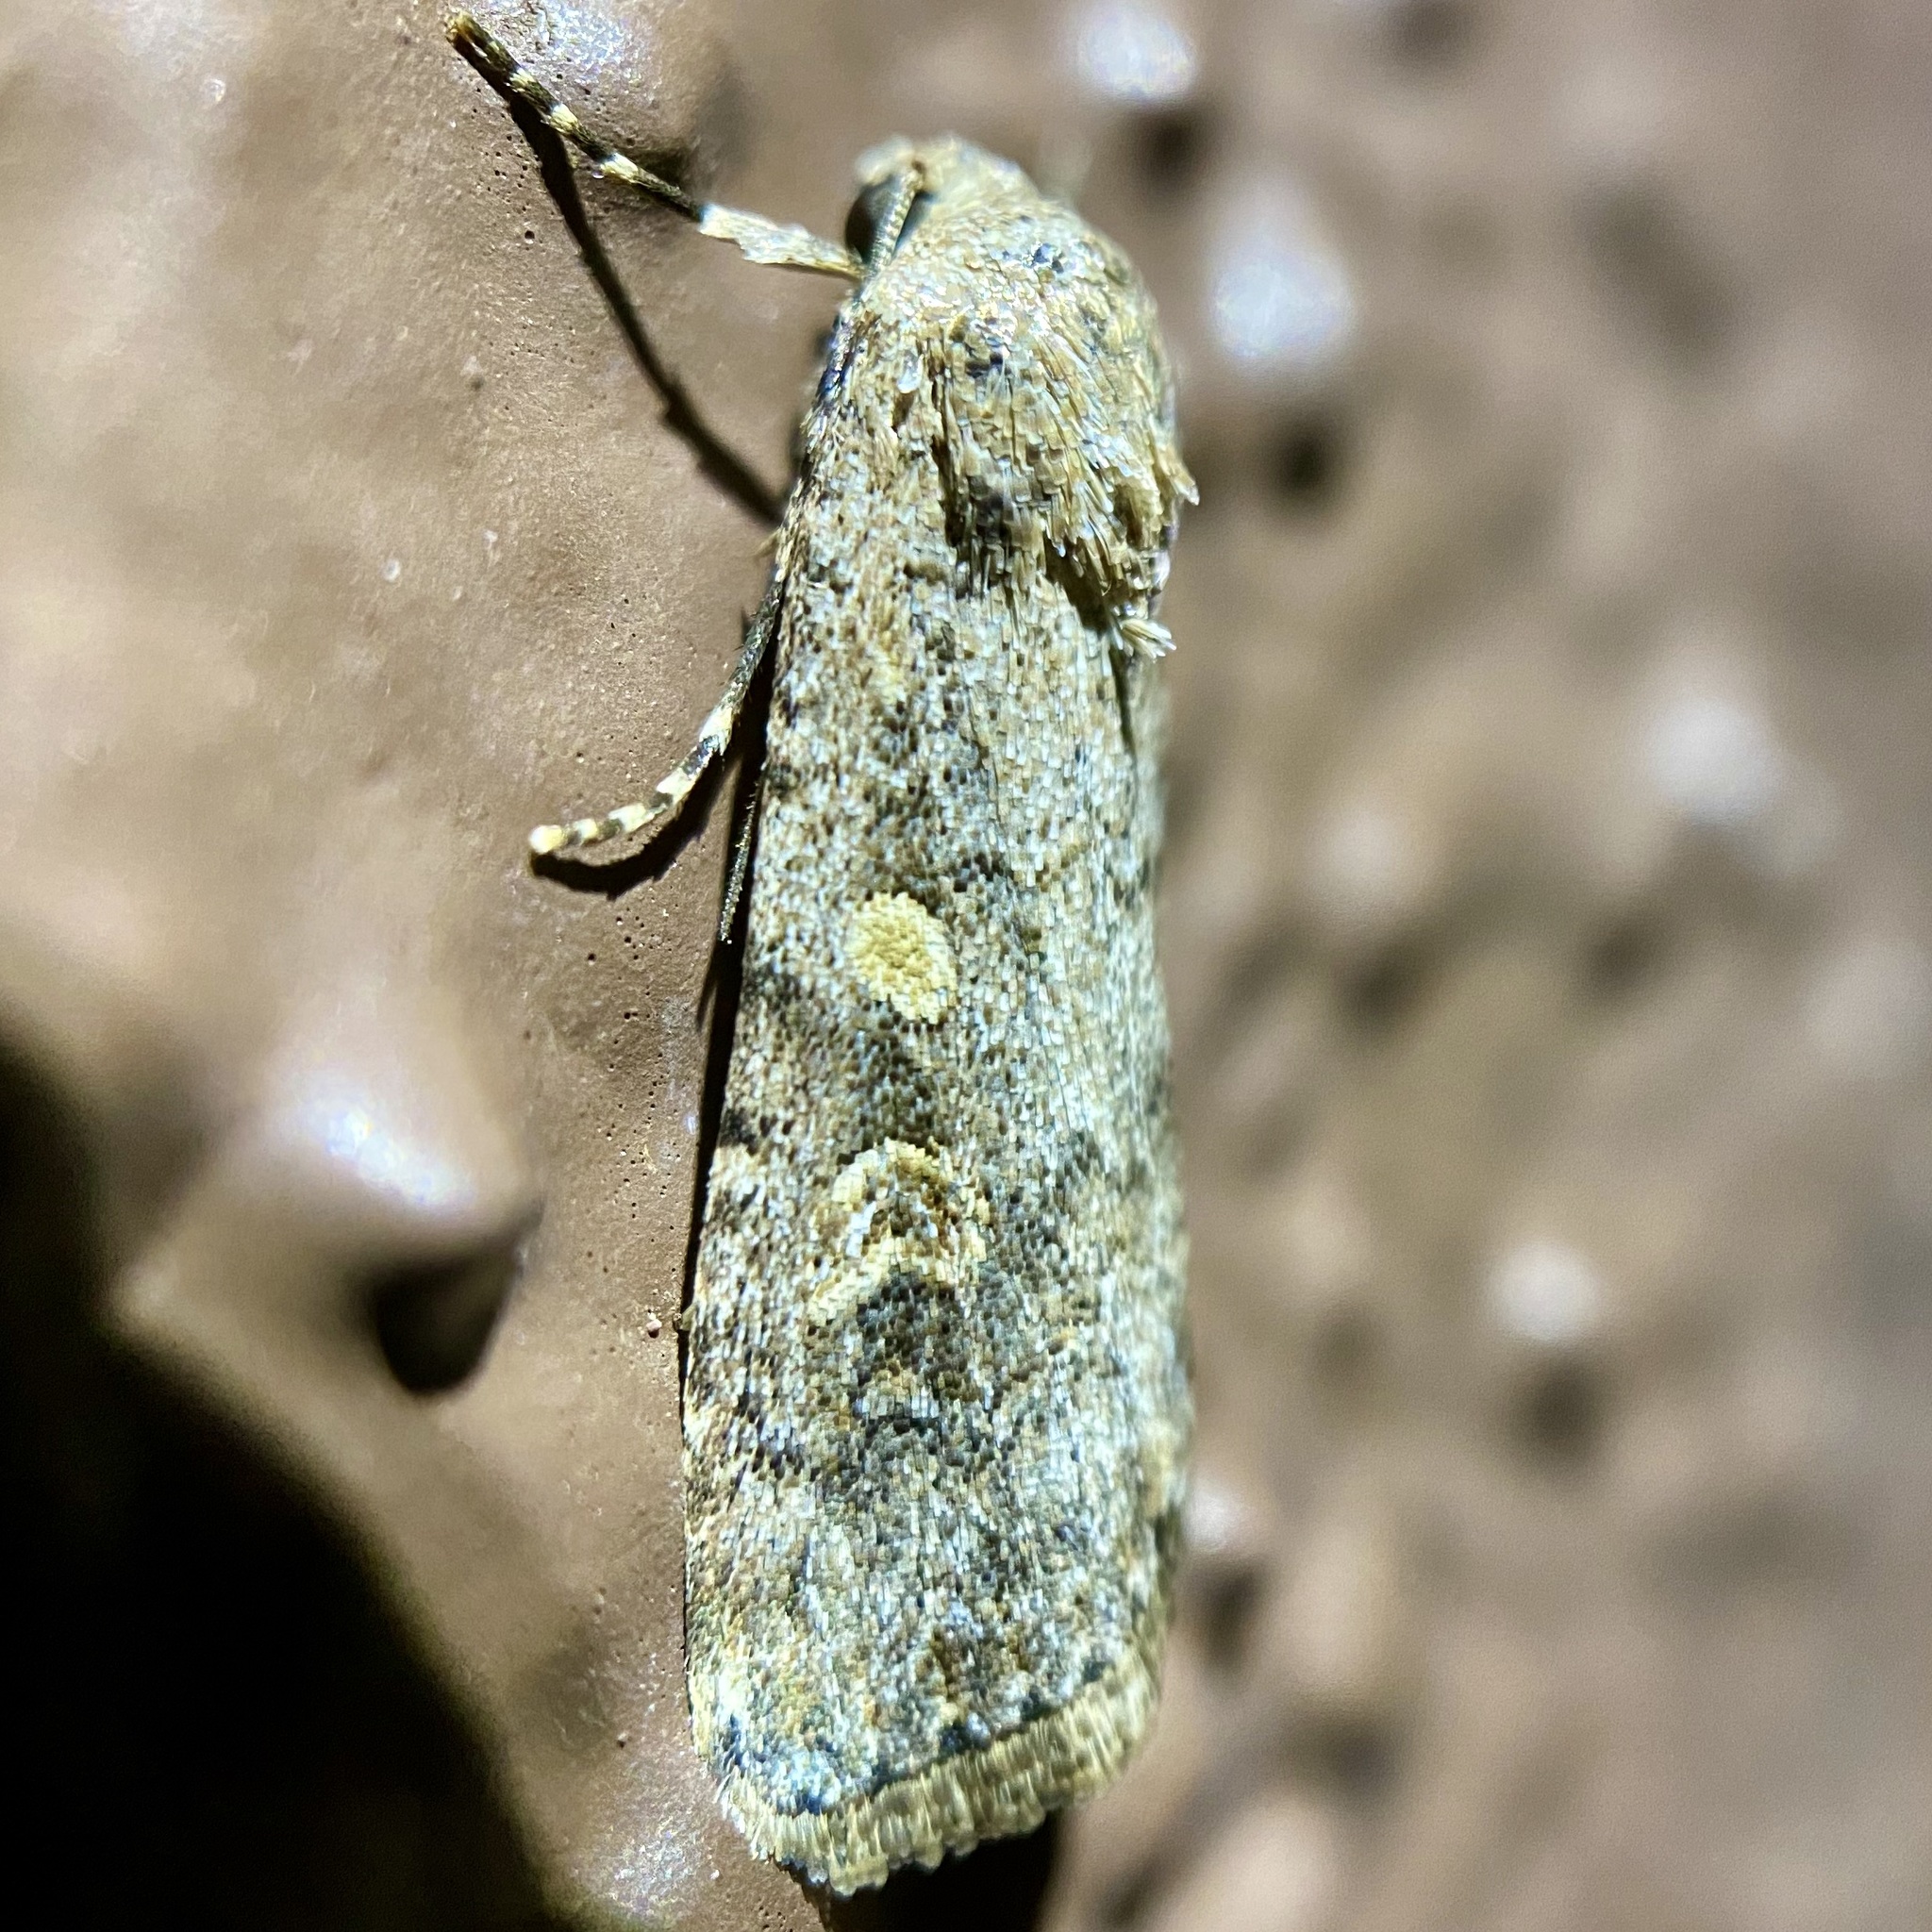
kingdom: Animalia
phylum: Arthropoda
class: Insecta
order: Lepidoptera
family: Noctuidae
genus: Spodoptera
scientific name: Spodoptera exigua
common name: Beet armyworm
